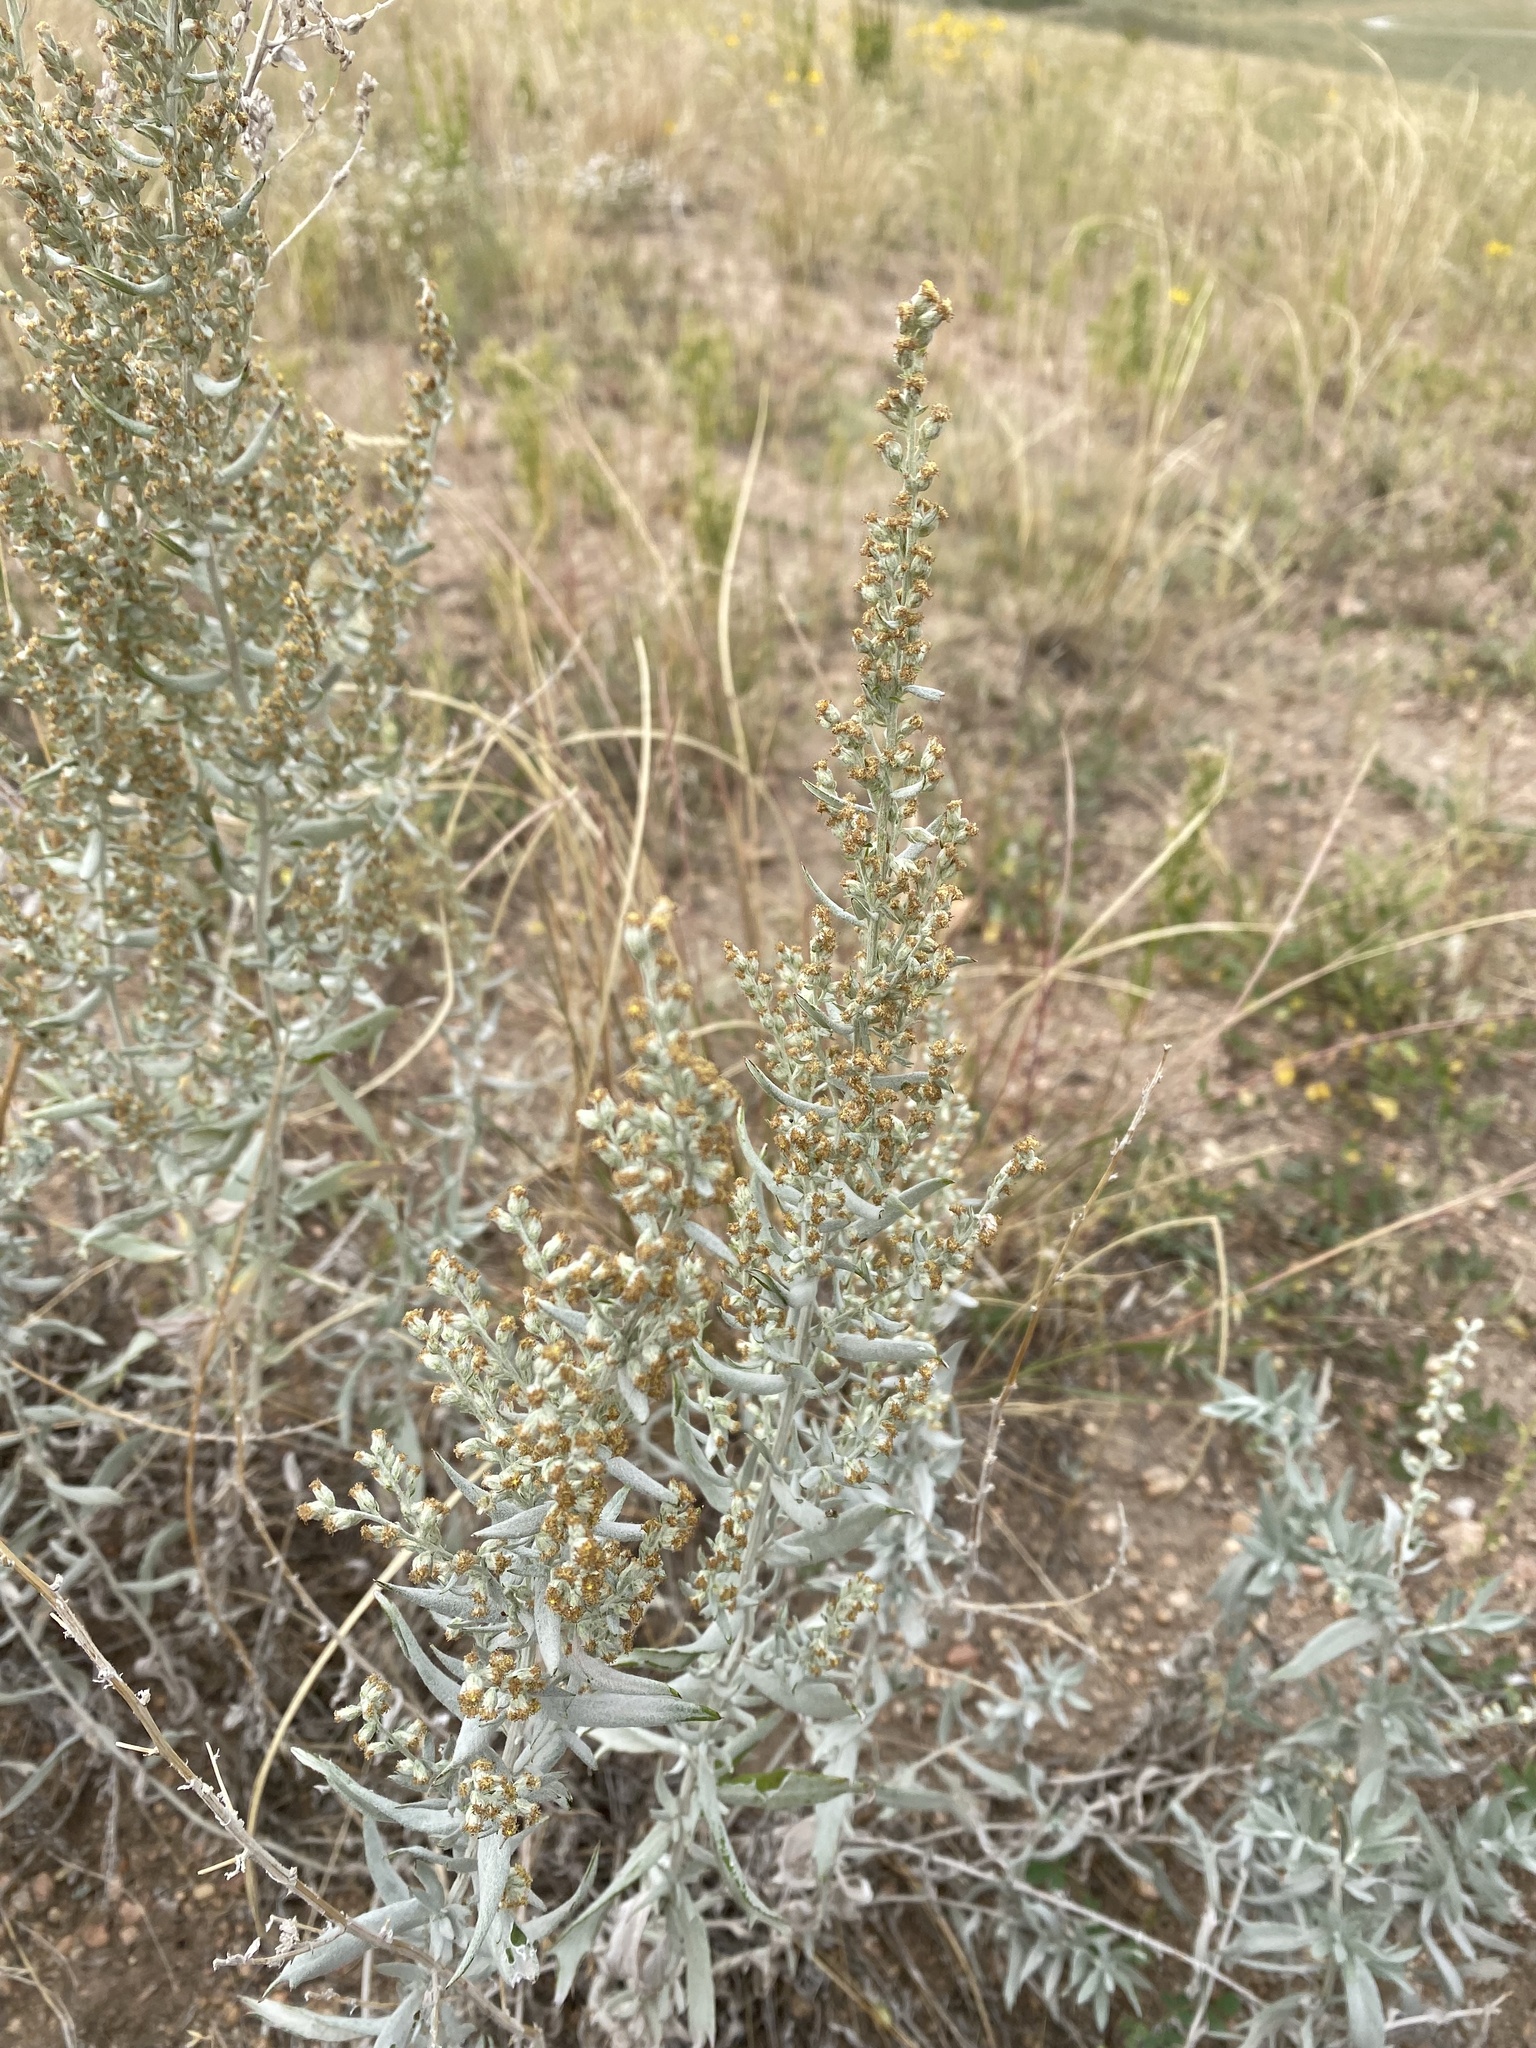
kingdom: Plantae
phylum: Tracheophyta
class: Magnoliopsida
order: Asterales
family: Asteraceae
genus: Artemisia
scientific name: Artemisia ludoviciana
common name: Western mugwort
